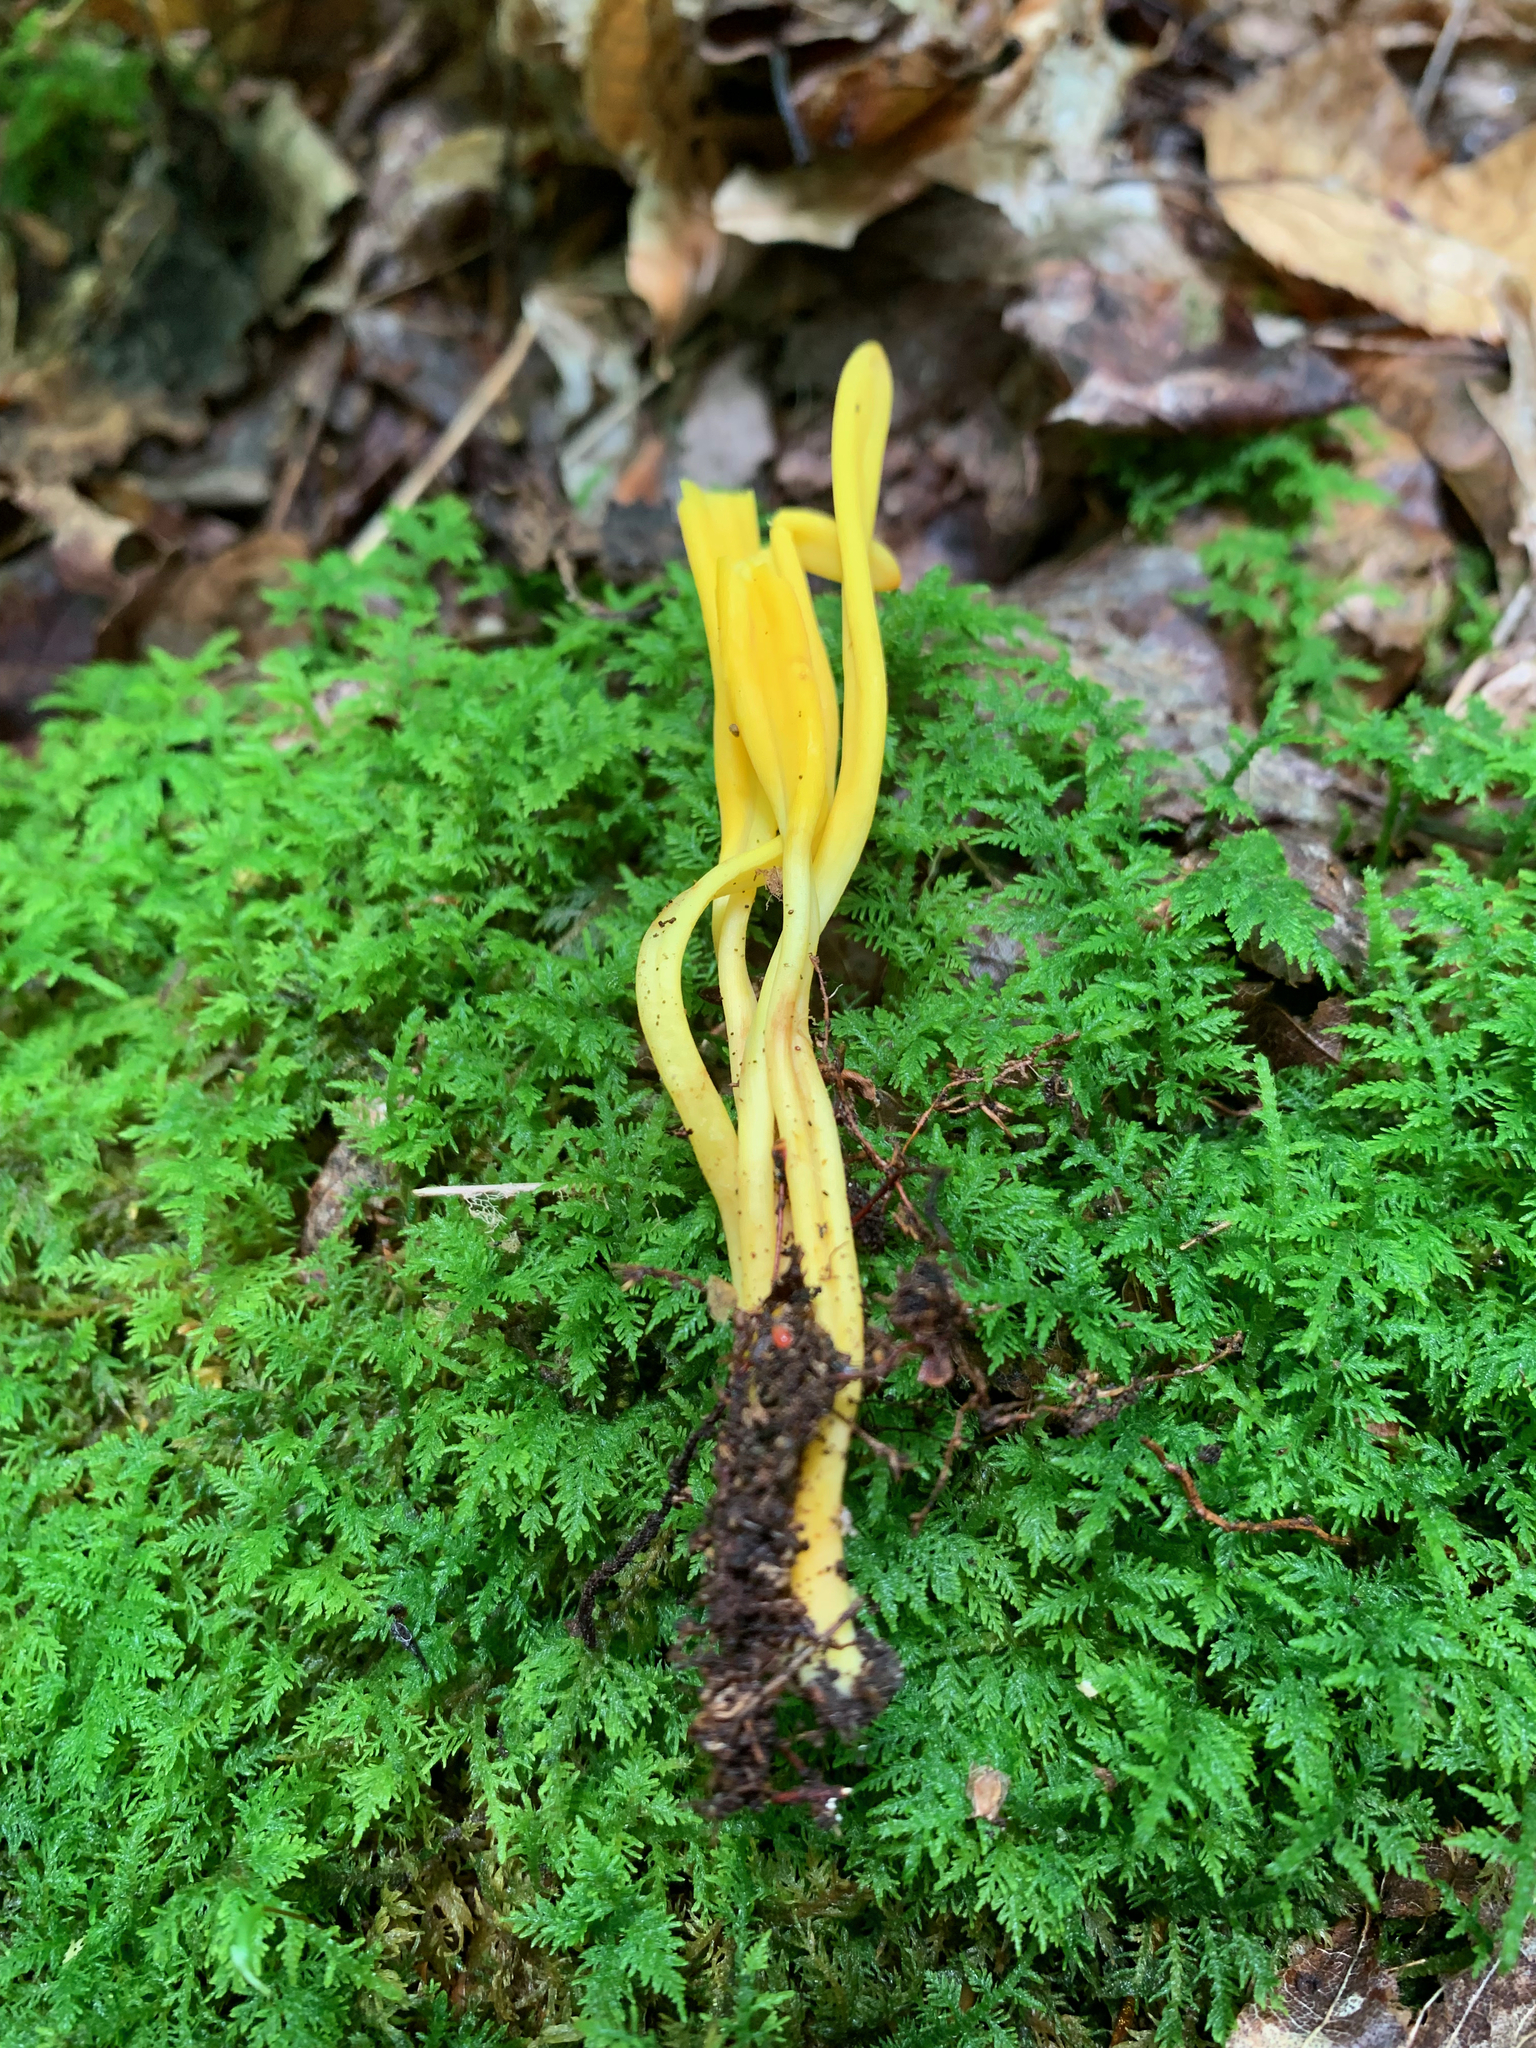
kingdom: Fungi
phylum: Basidiomycota
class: Agaricomycetes
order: Agaricales
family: Clavariaceae
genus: Clavulinopsis
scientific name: Clavulinopsis fusiformis
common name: Golden spindles
